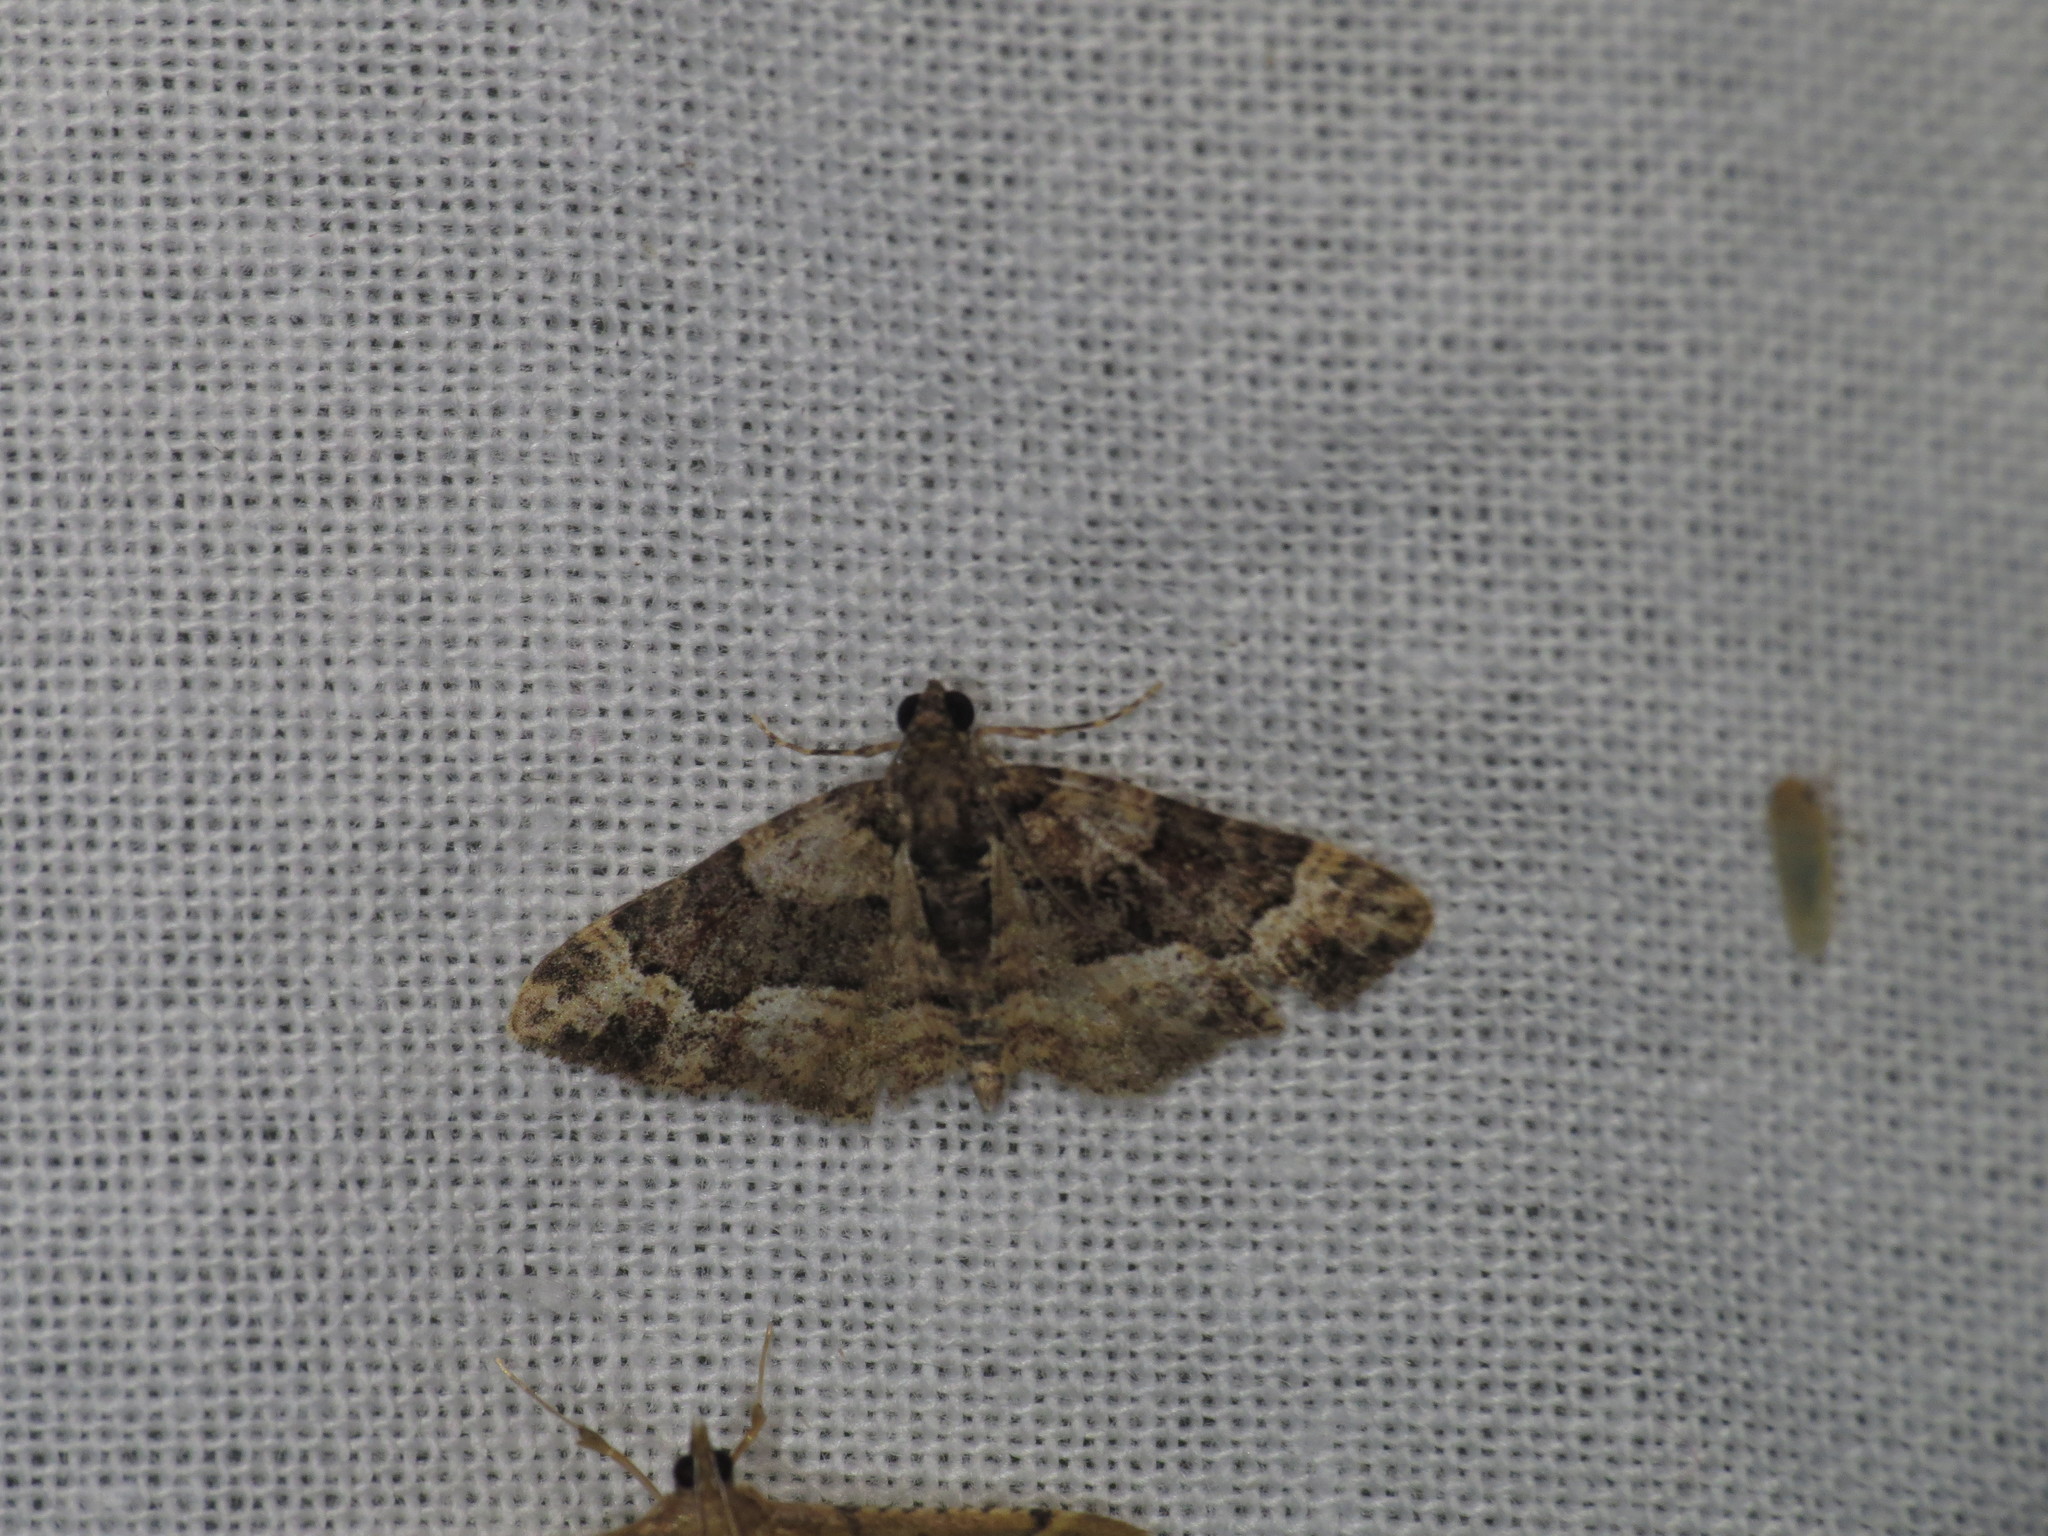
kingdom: Animalia
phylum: Arthropoda
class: Insecta
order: Lepidoptera
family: Geometridae
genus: Epyaxa
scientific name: Epyaxa sodaliata
